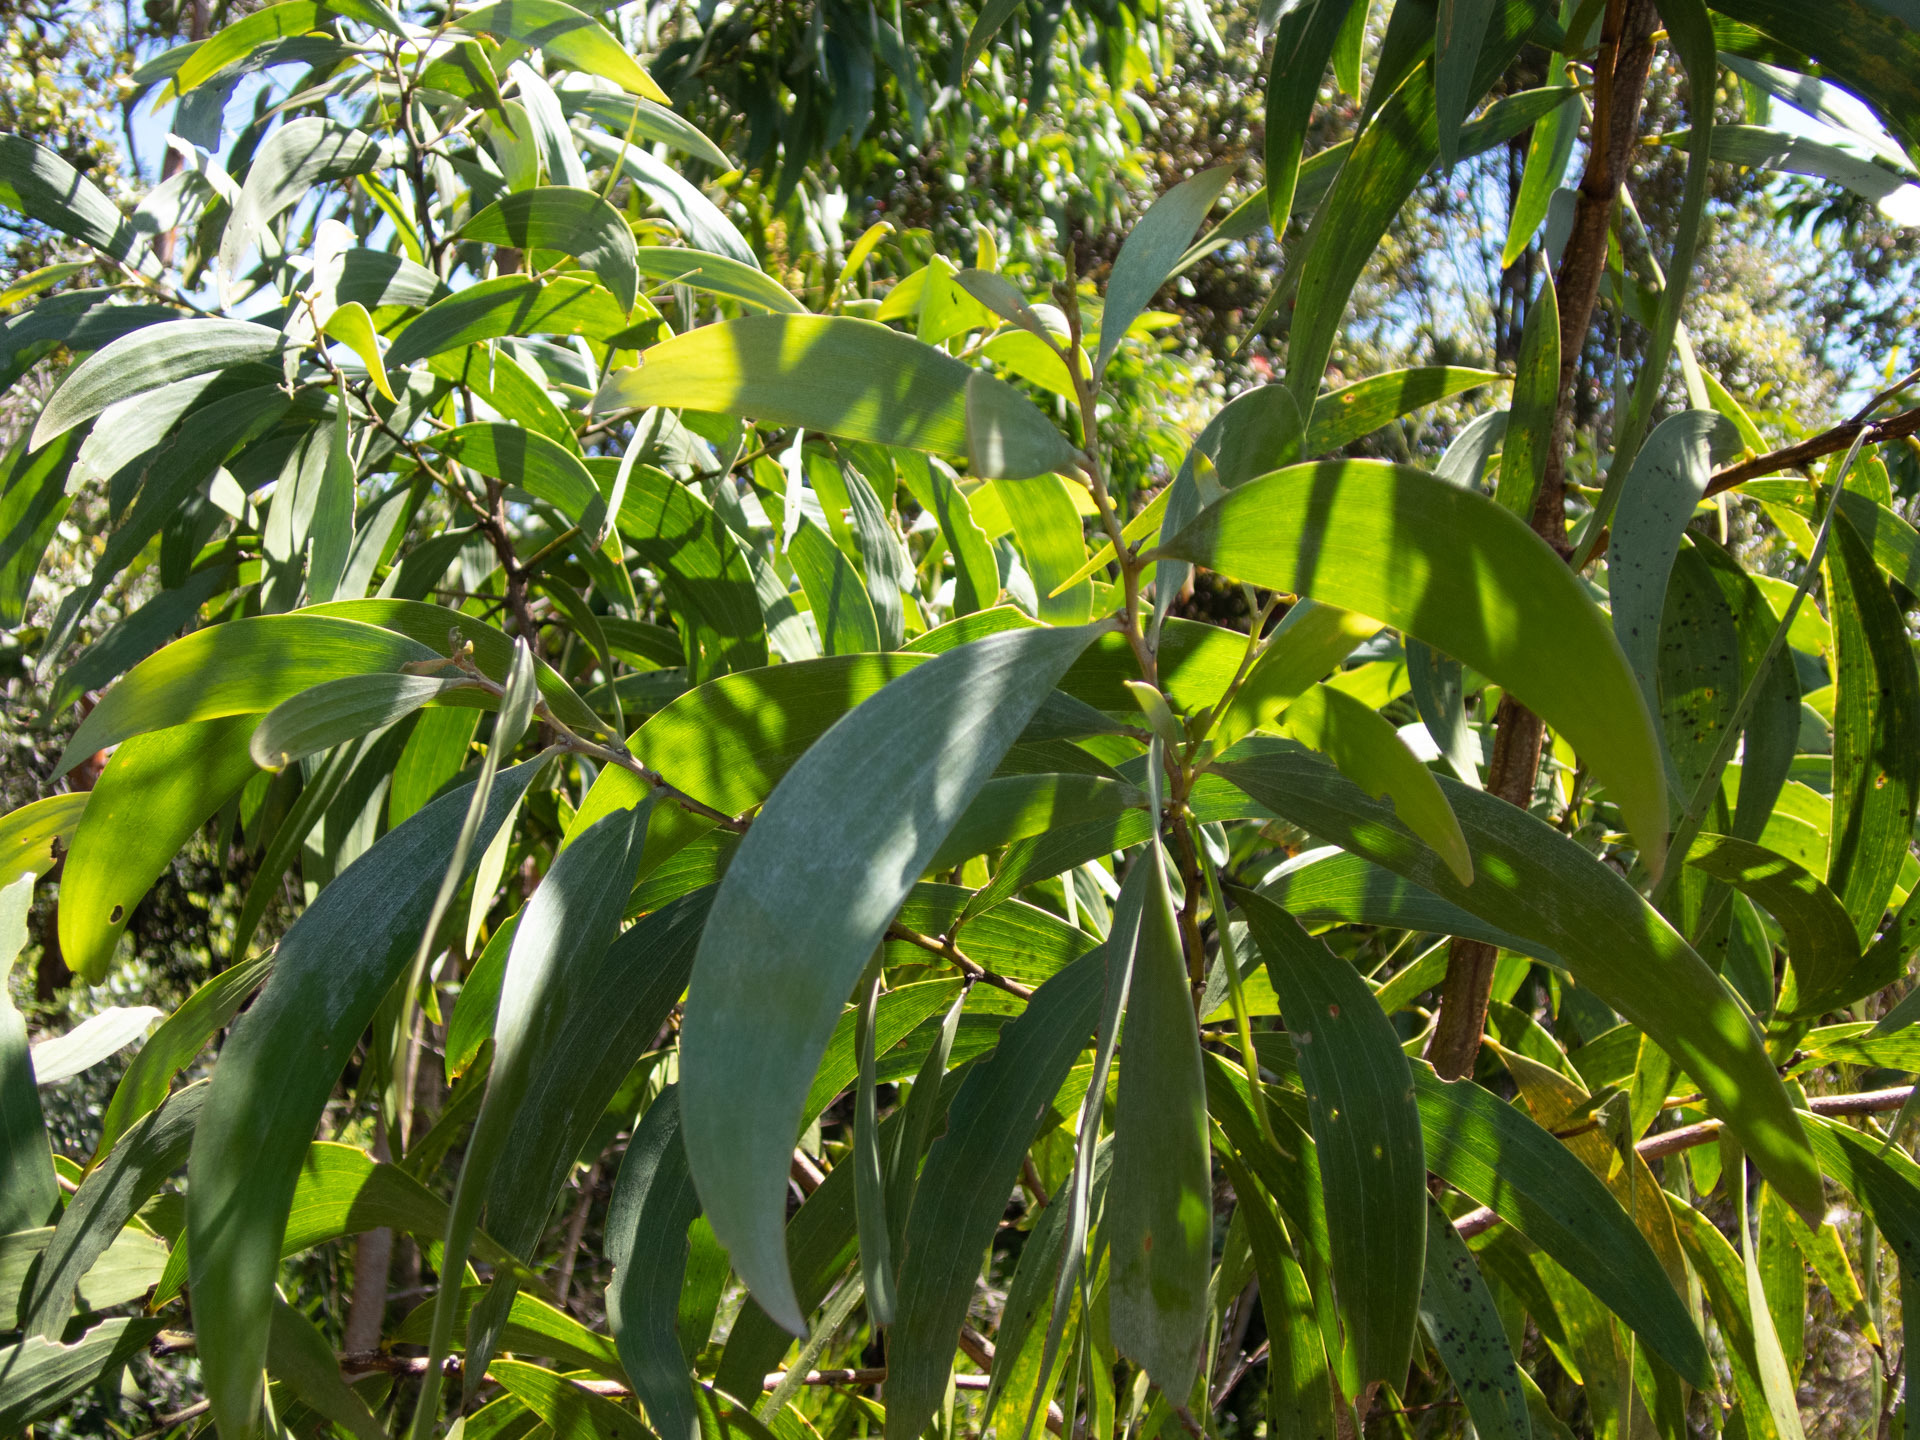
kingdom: Plantae
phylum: Tracheophyta
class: Magnoliopsida
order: Fabales
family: Fabaceae
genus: Acacia
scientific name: Acacia koa
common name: Gray koa
